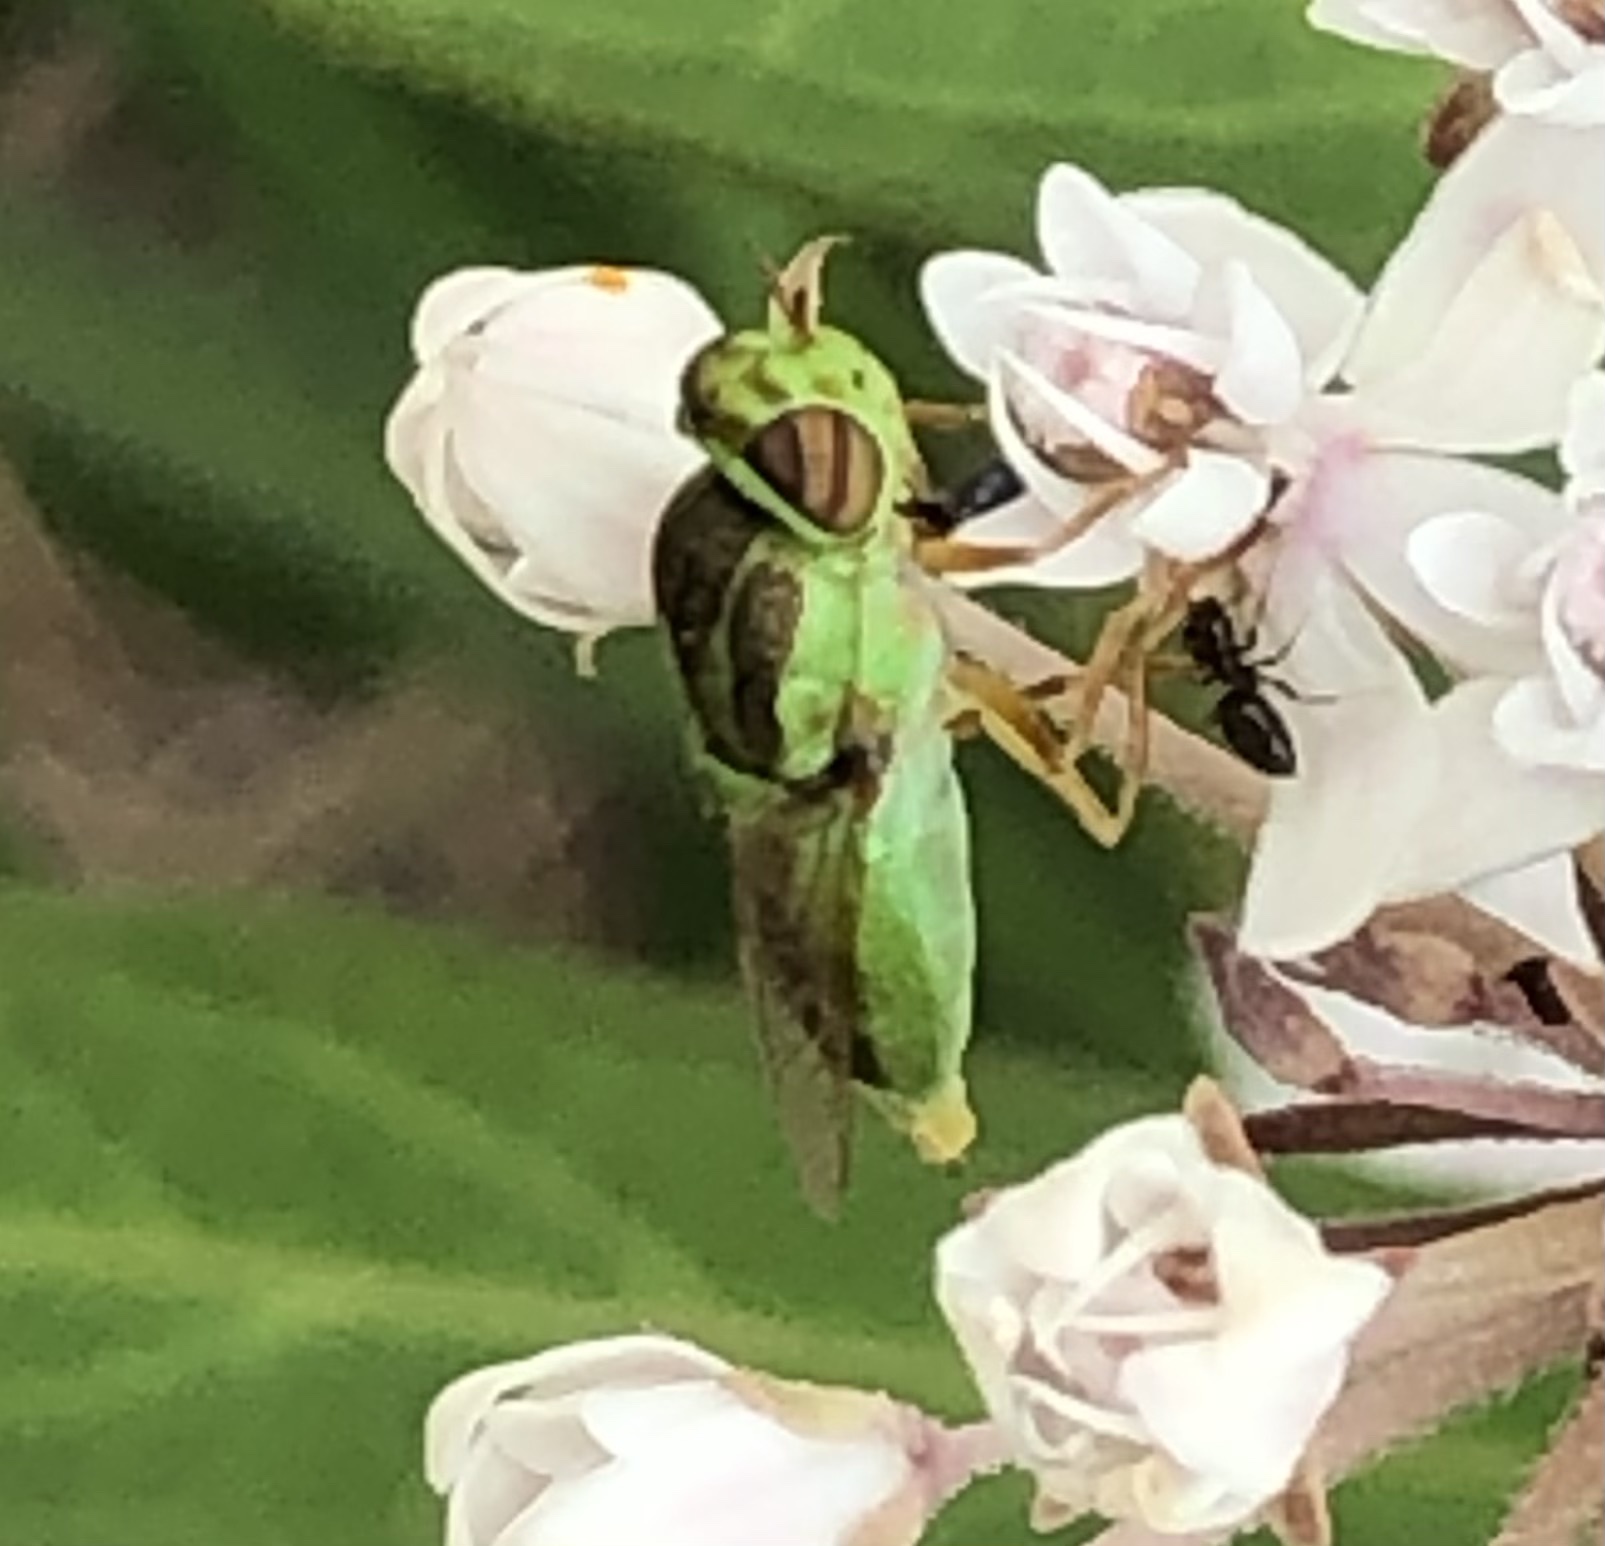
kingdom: Animalia
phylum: Arthropoda
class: Insecta
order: Diptera
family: Stratiomyidae
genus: Hedriodiscus
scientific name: Hedriodiscus trivittatus
